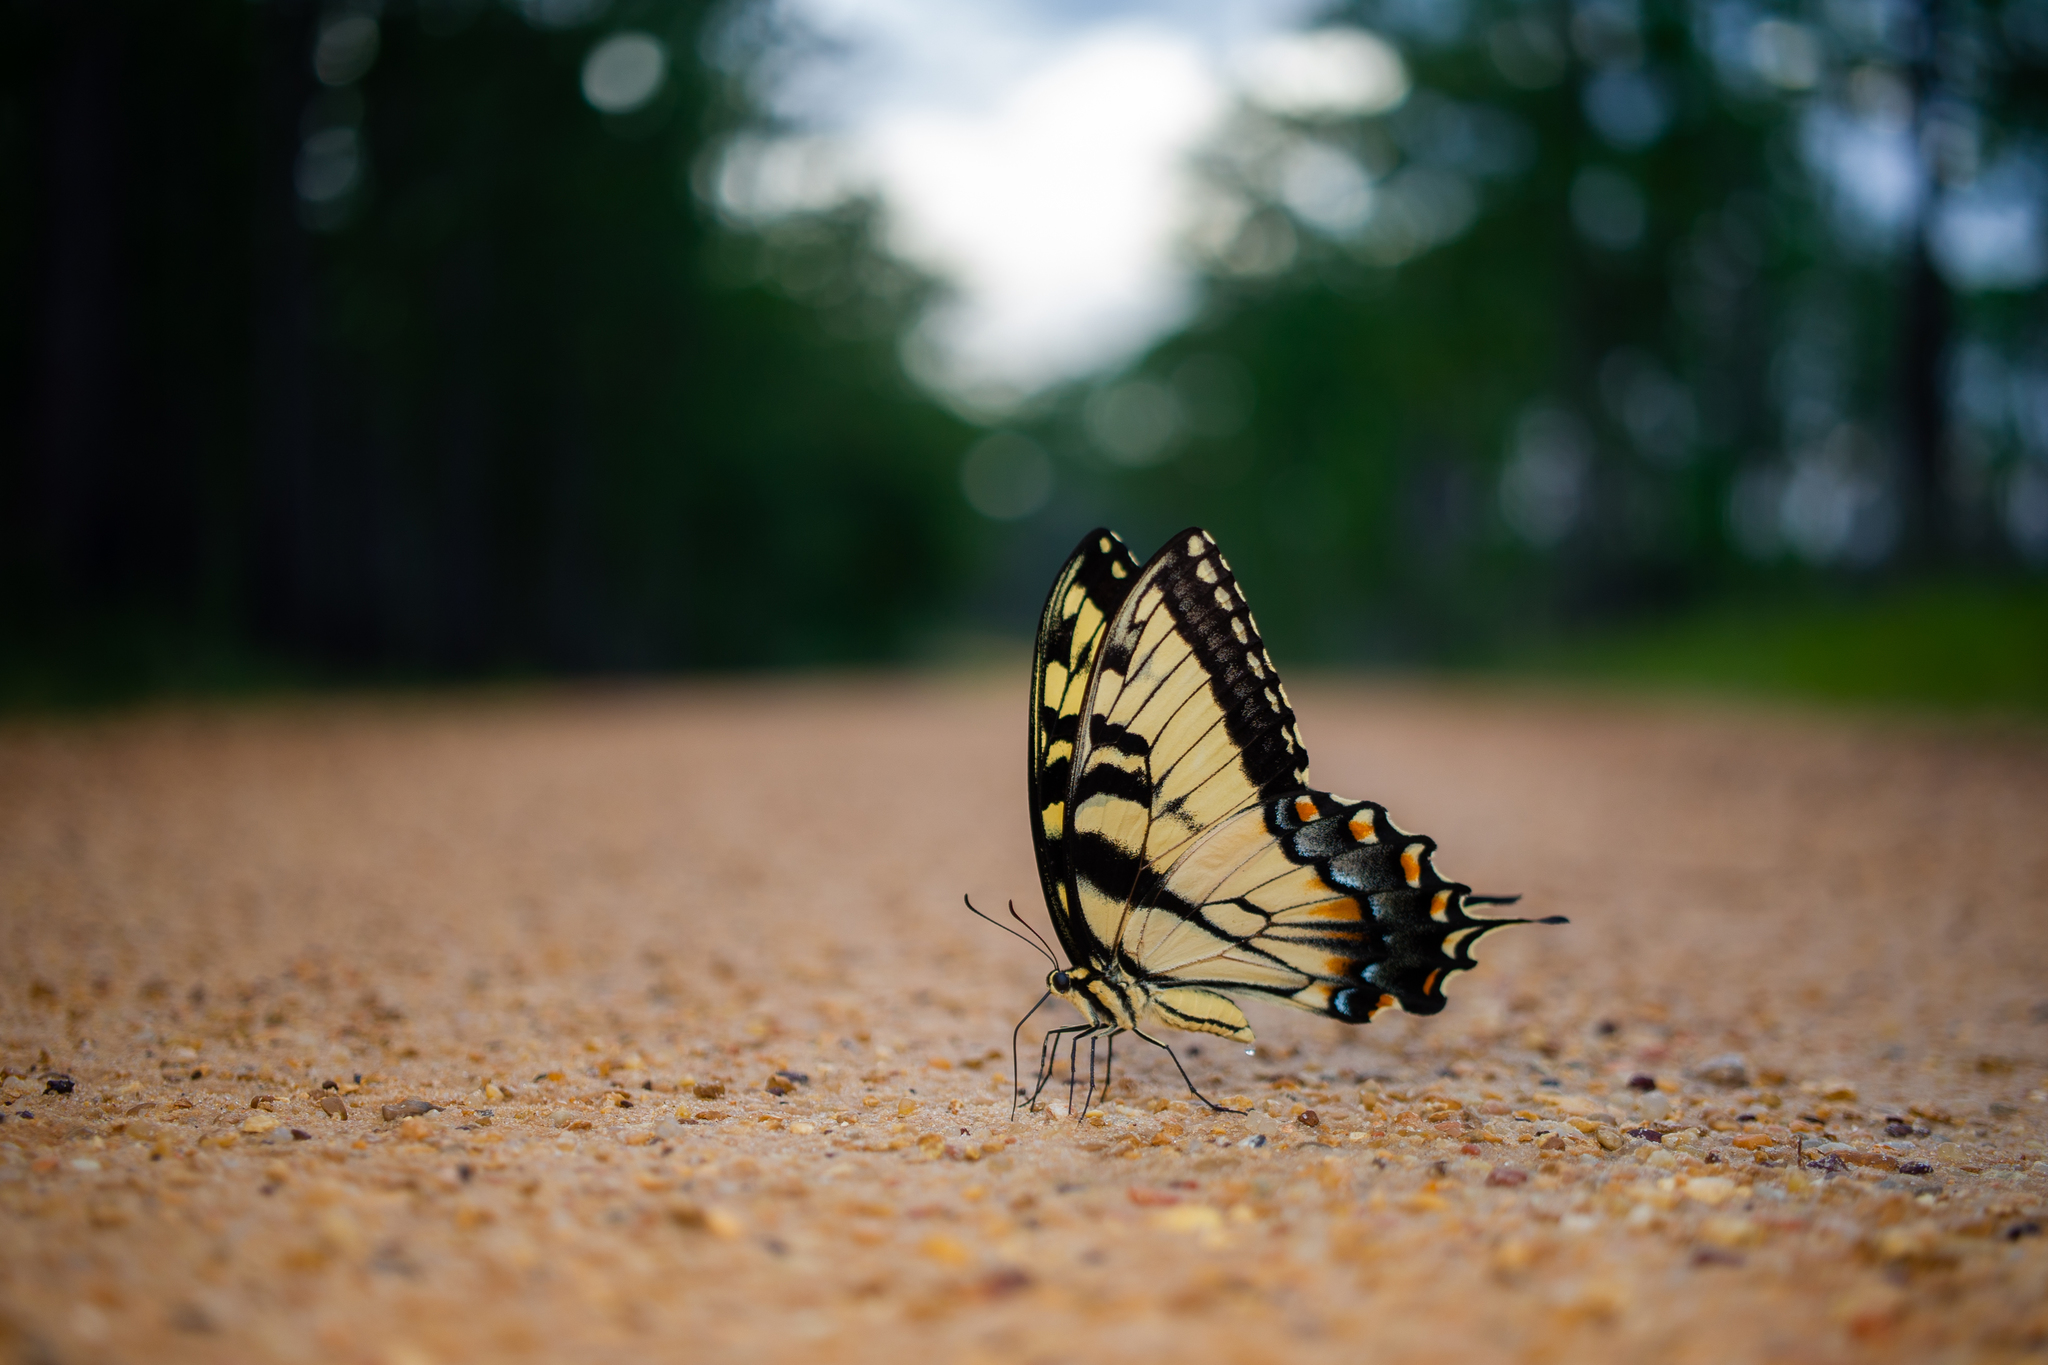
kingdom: Animalia
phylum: Arthropoda
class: Insecta
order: Lepidoptera
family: Papilionidae
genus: Papilio
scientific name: Papilio glaucus
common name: Tiger swallowtail
